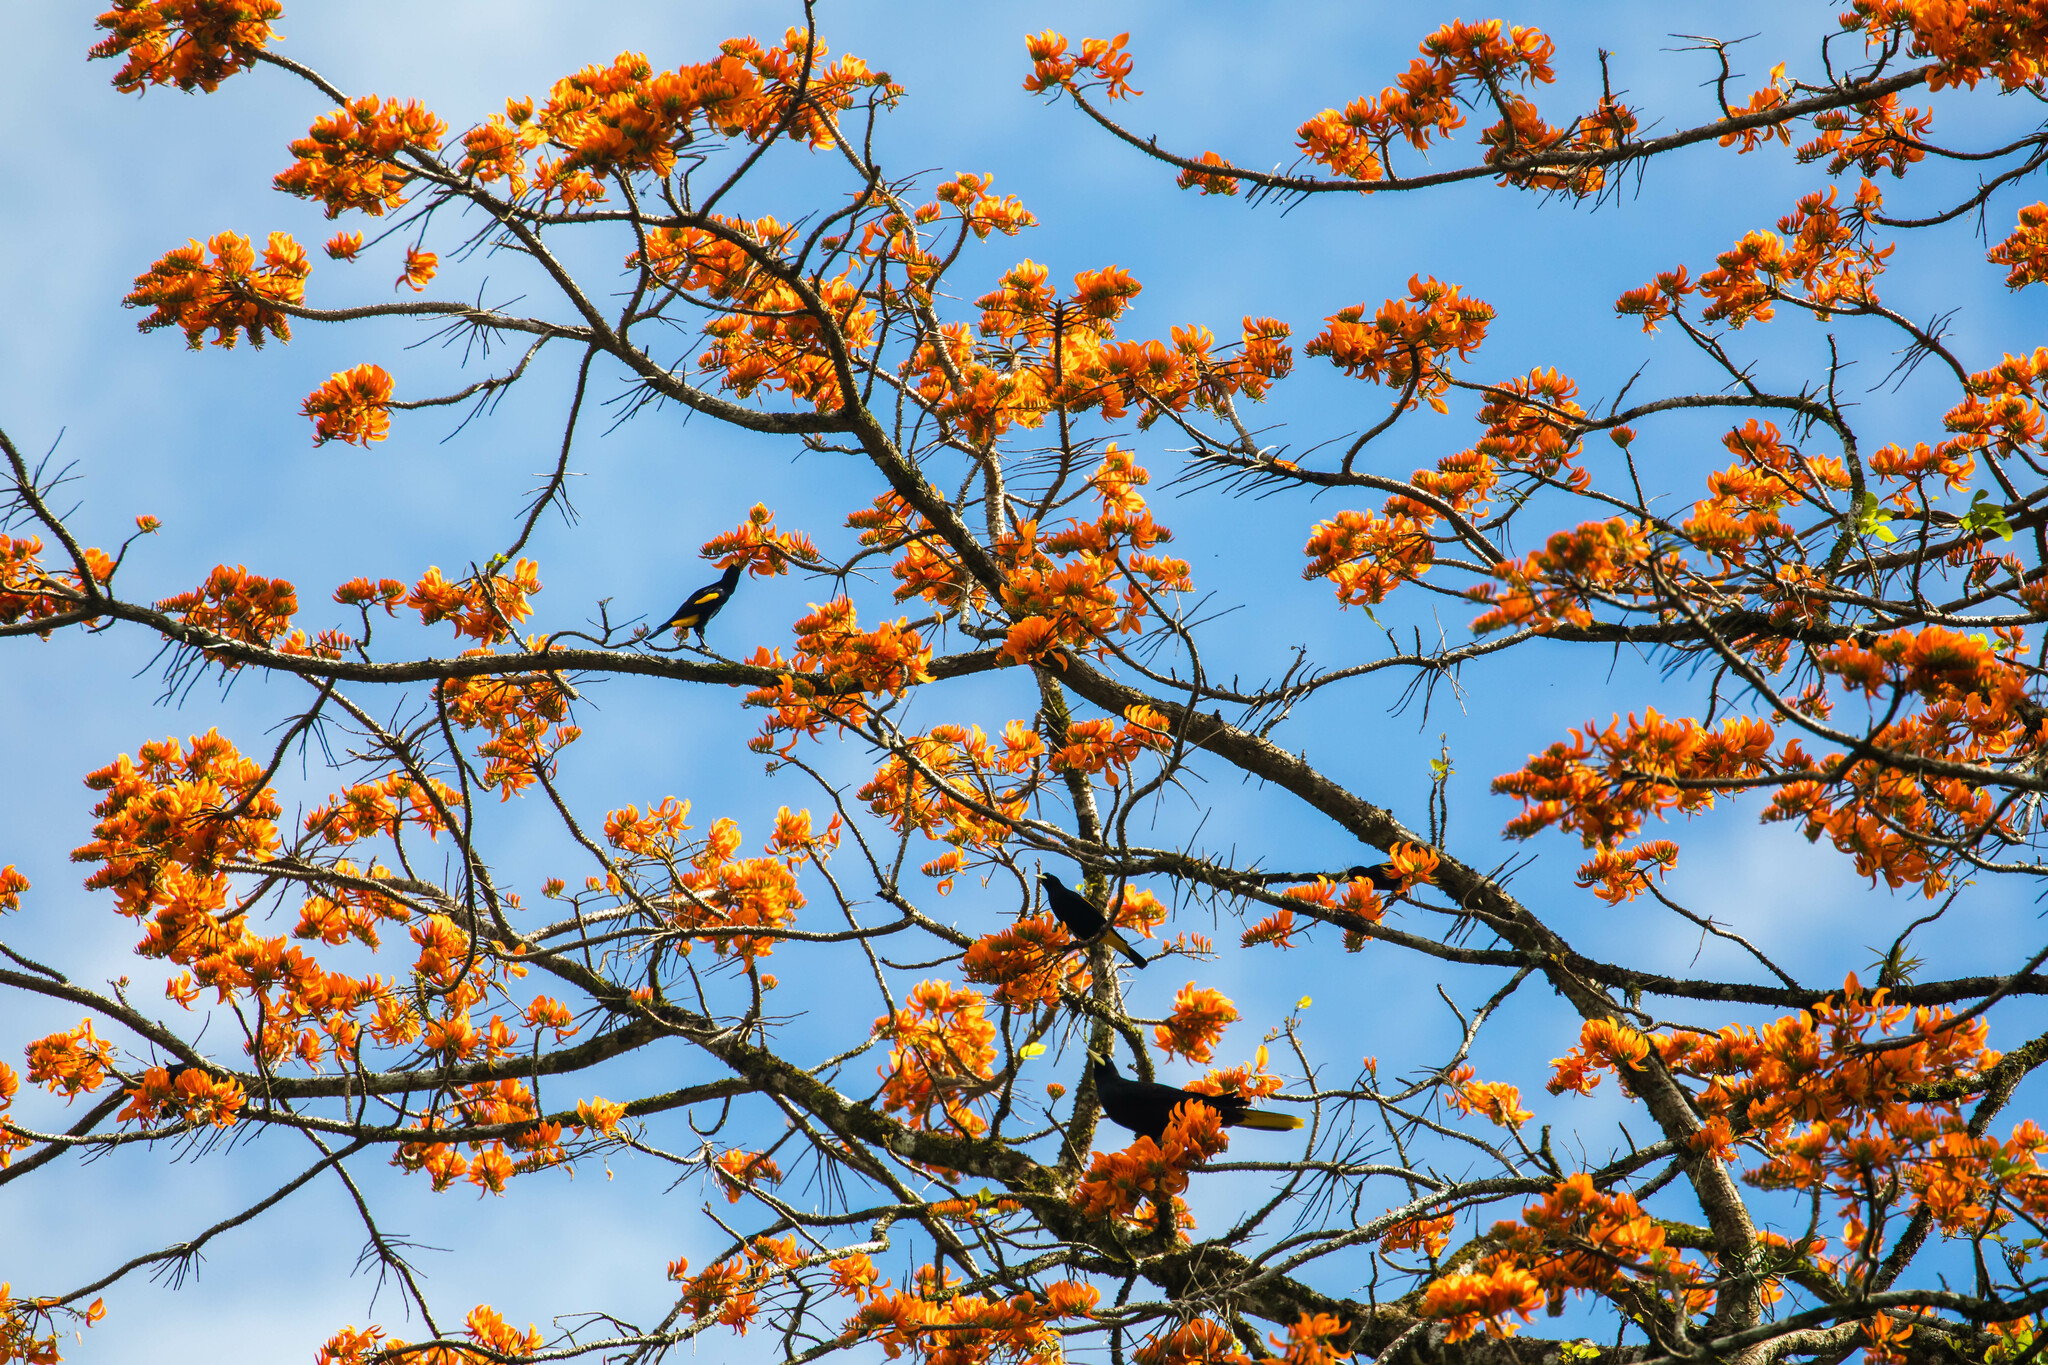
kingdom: Animalia
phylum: Chordata
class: Aves
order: Passeriformes
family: Icteridae
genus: Cacicus
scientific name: Cacicus cela
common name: Yellow-rumped cacique
